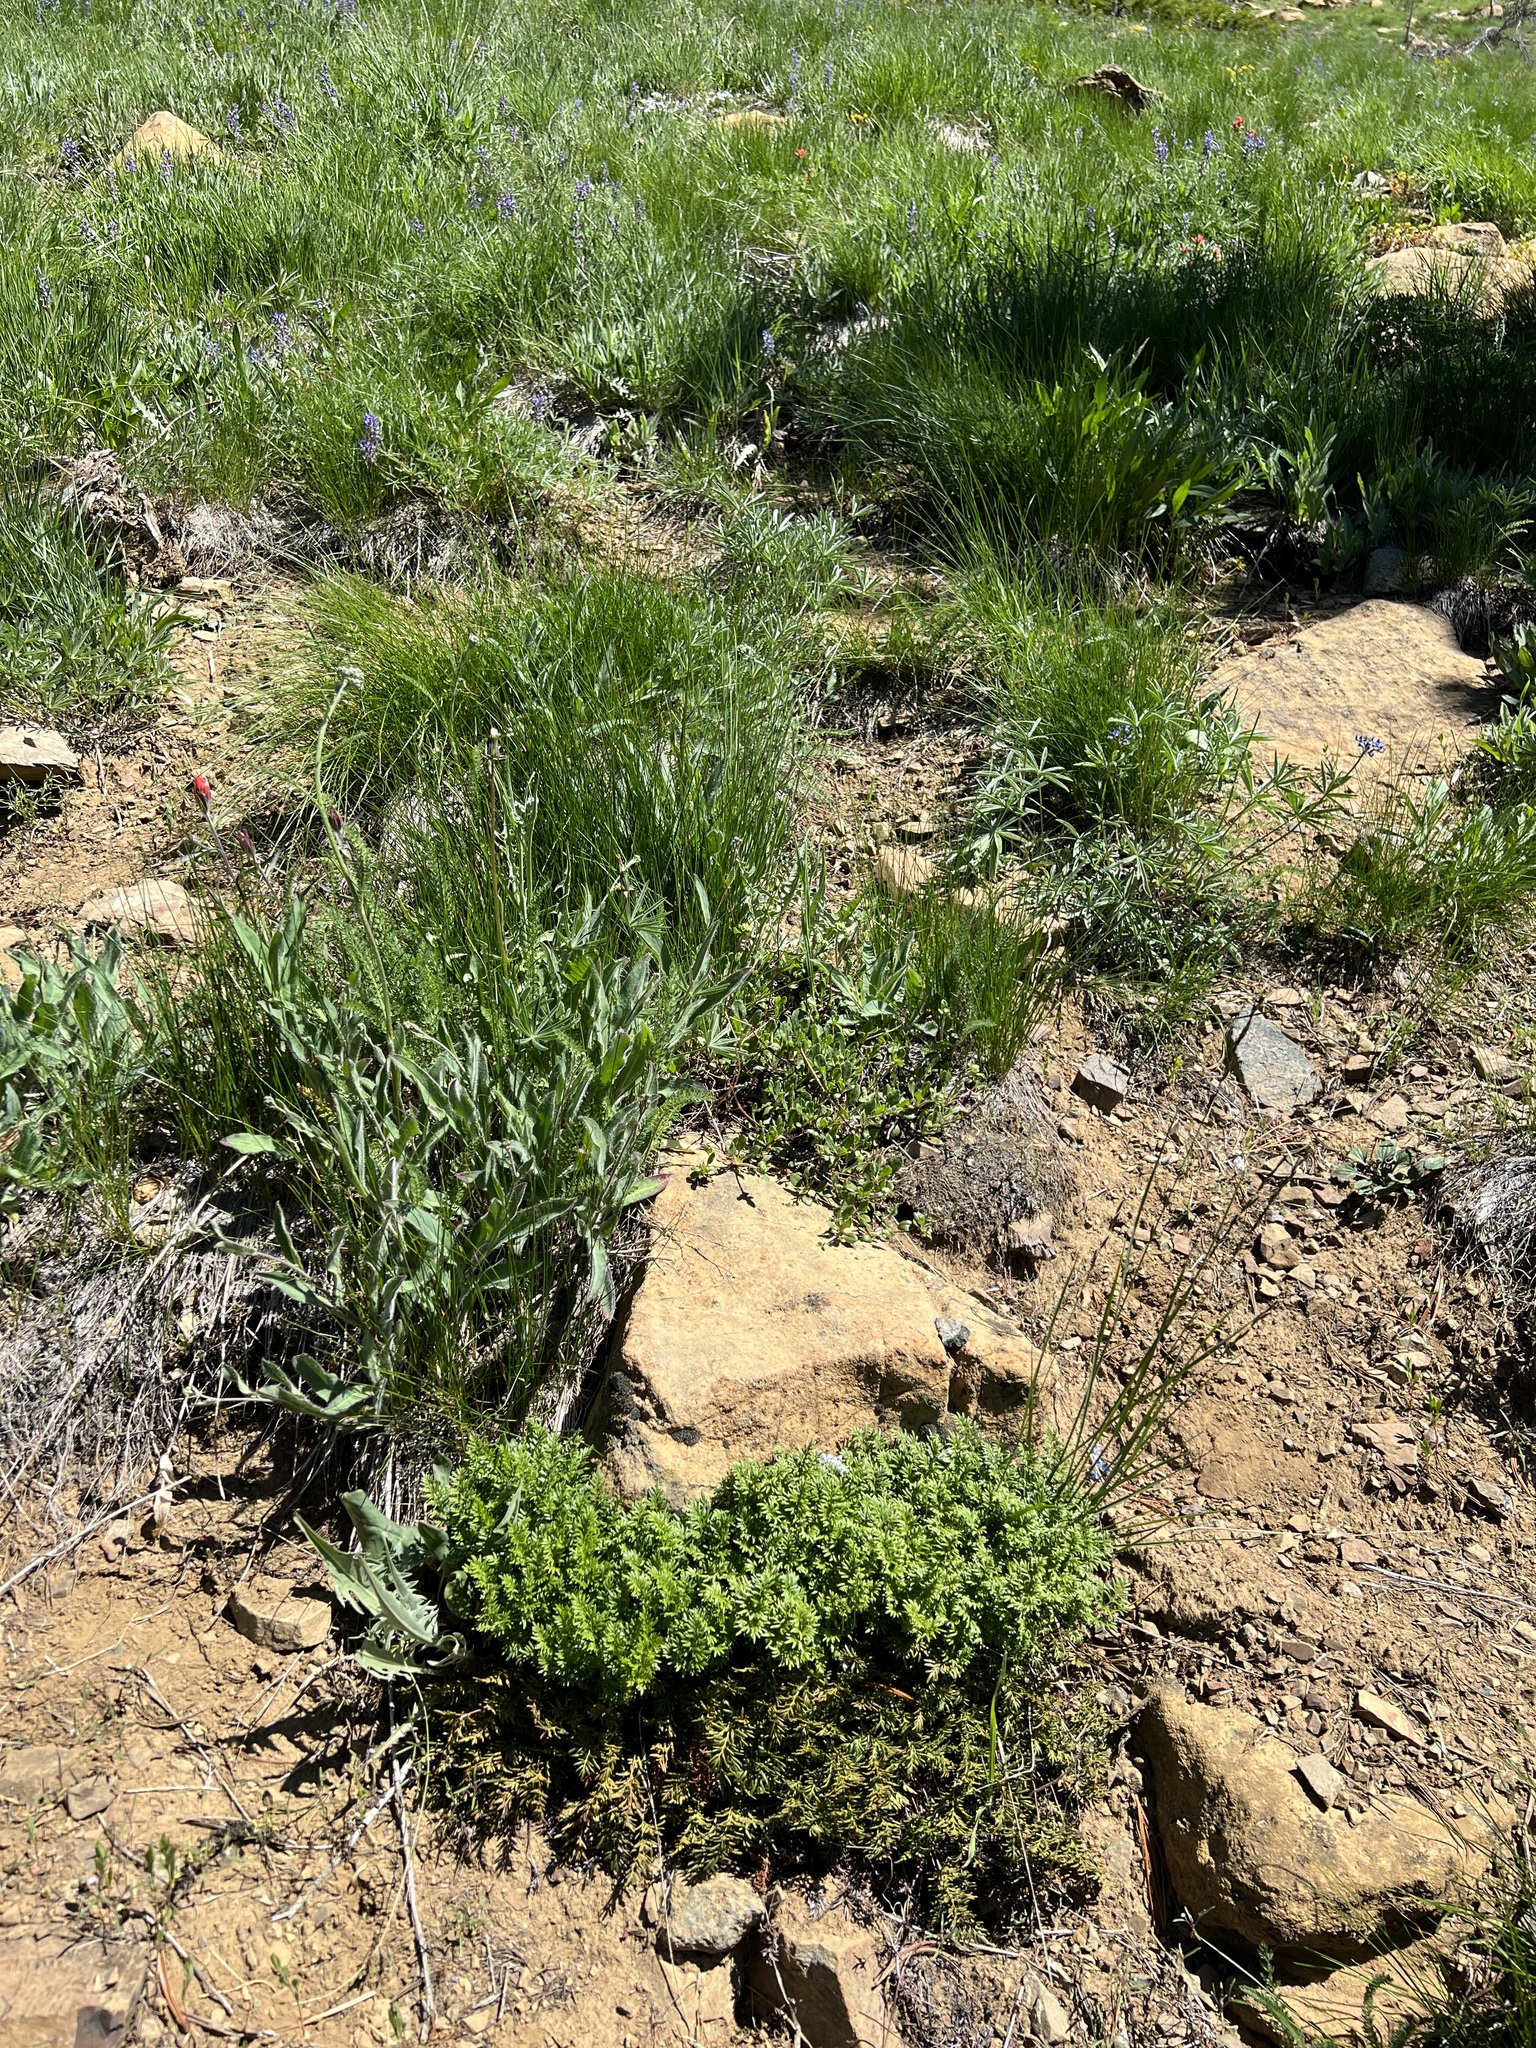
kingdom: Plantae
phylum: Tracheophyta
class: Polypodiopsida
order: Polypodiales
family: Pteridaceae
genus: Aspidotis
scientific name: Aspidotis densa
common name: Indian's dream
